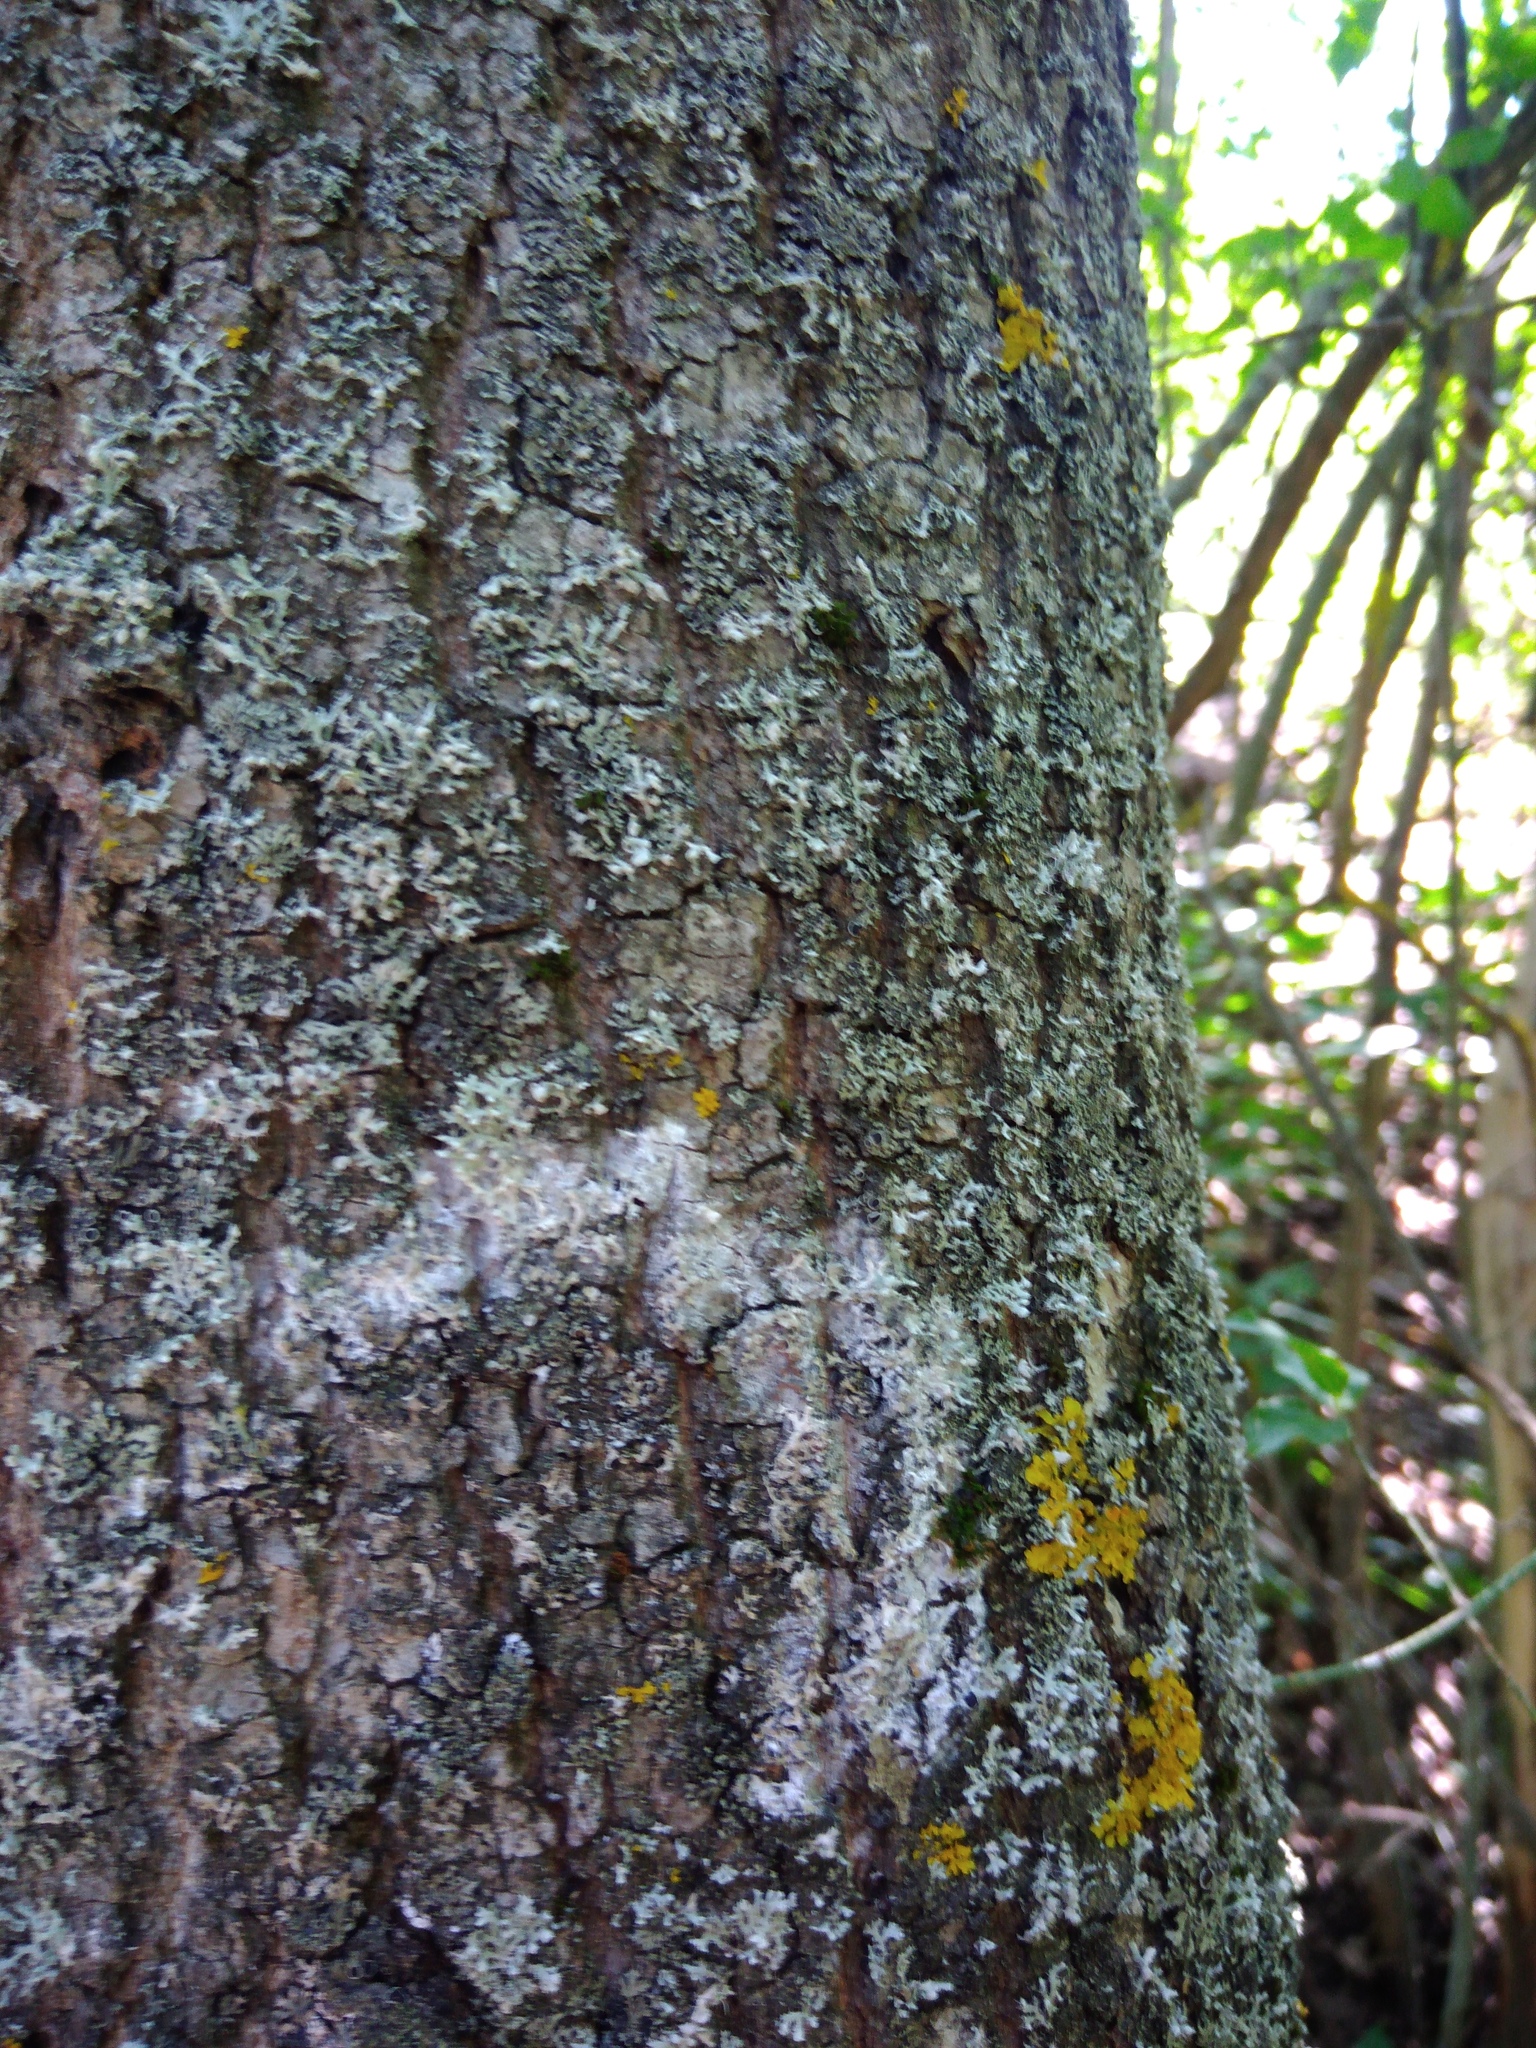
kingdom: Fungi
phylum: Basidiomycota
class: Agaricomycetes
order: Atheliales
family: Atheliaceae
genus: Athelia
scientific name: Athelia arachnoidea
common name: Candelabra duster
